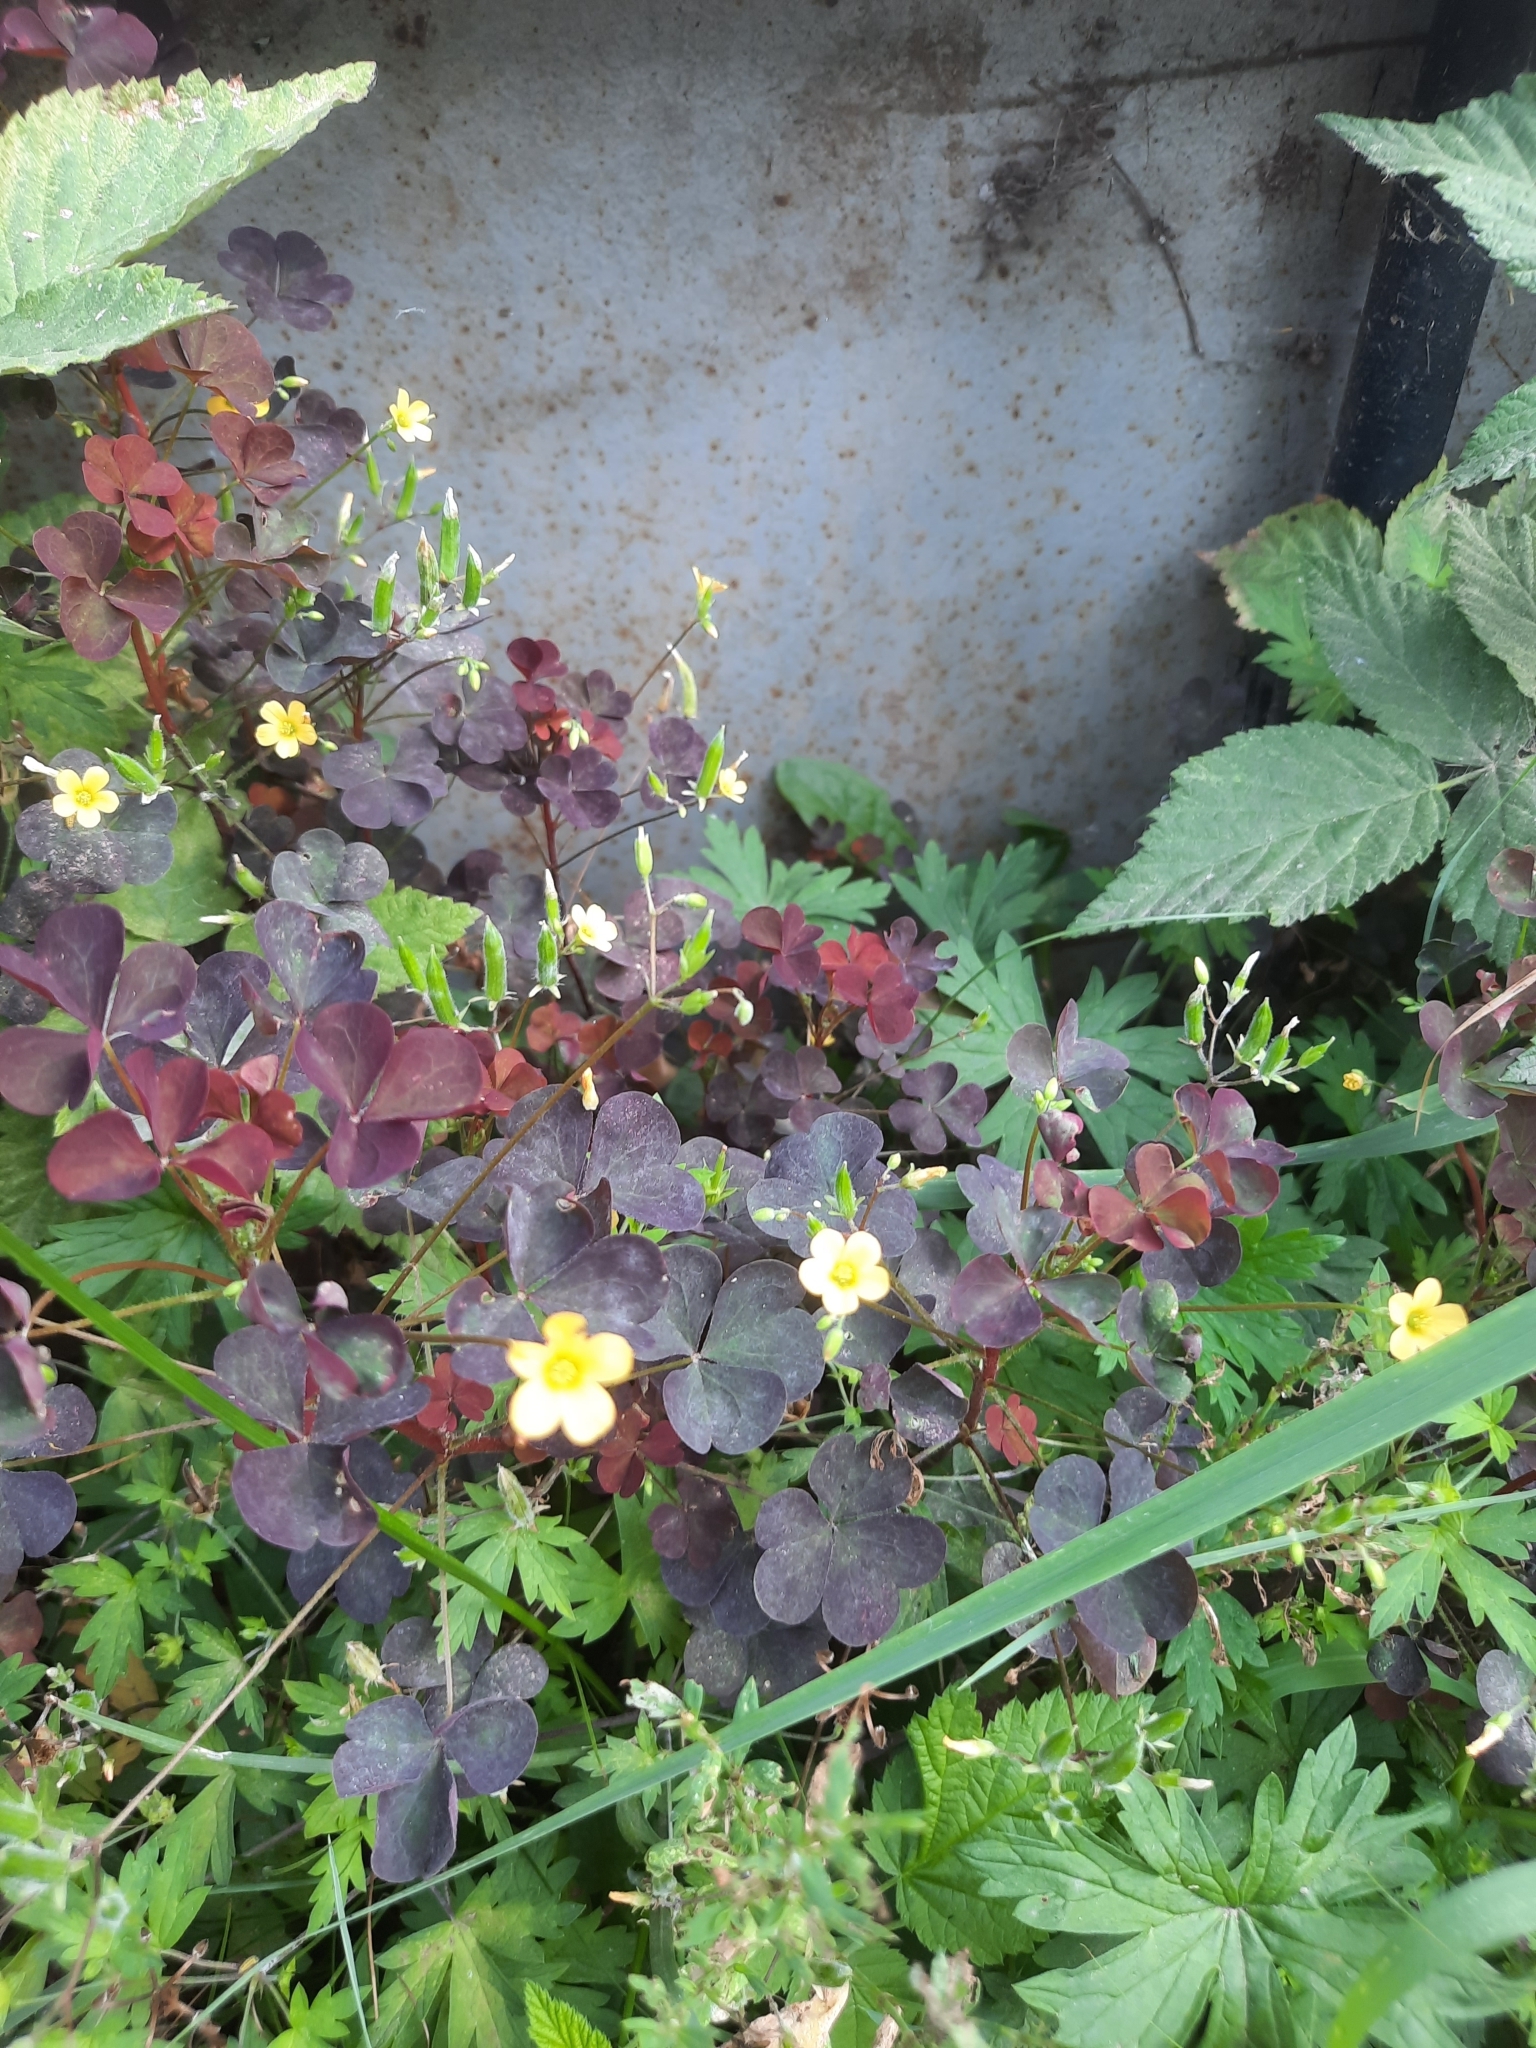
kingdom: Plantae
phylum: Tracheophyta
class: Magnoliopsida
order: Oxalidales
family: Oxalidaceae
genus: Oxalis
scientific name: Oxalis stricta
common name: Upright yellow-sorrel
